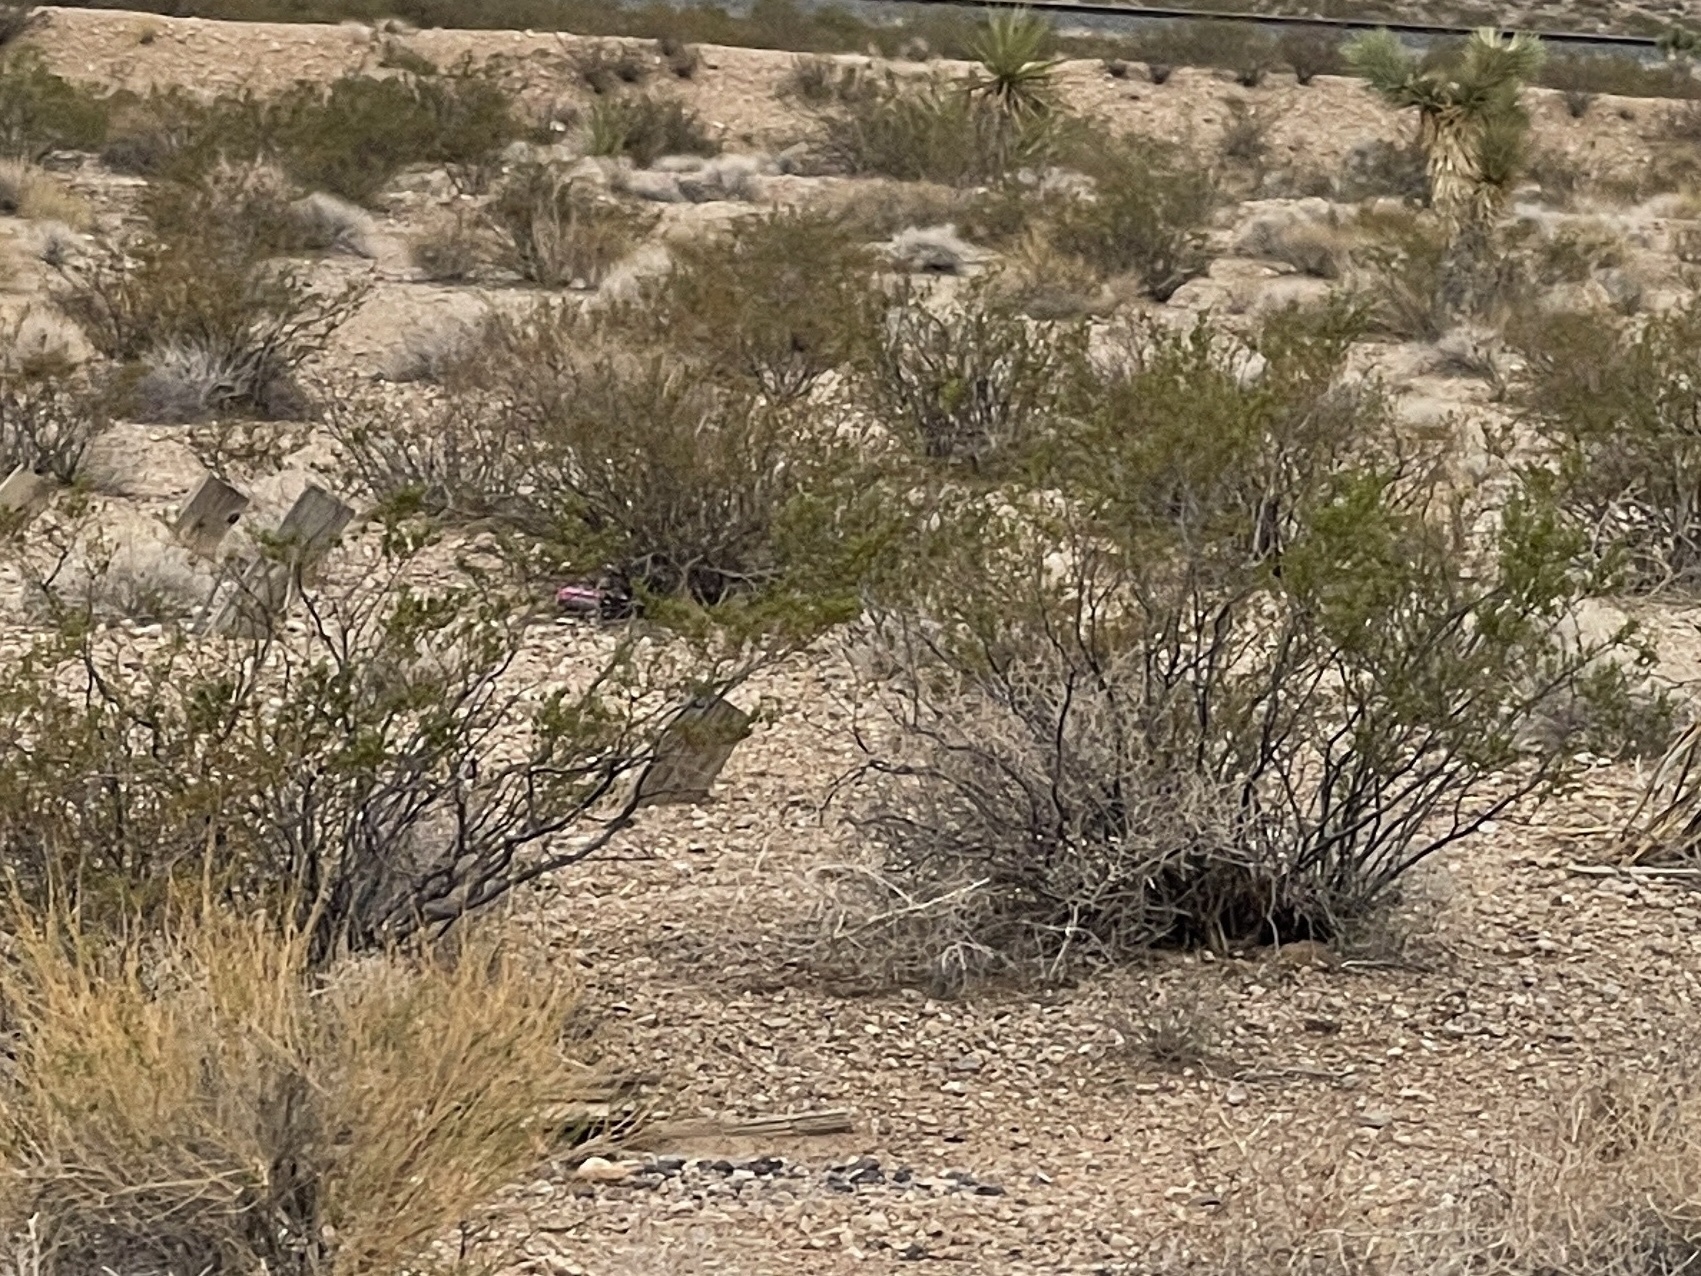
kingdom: Plantae
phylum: Tracheophyta
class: Magnoliopsida
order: Zygophyllales
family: Zygophyllaceae
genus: Larrea
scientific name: Larrea tridentata
